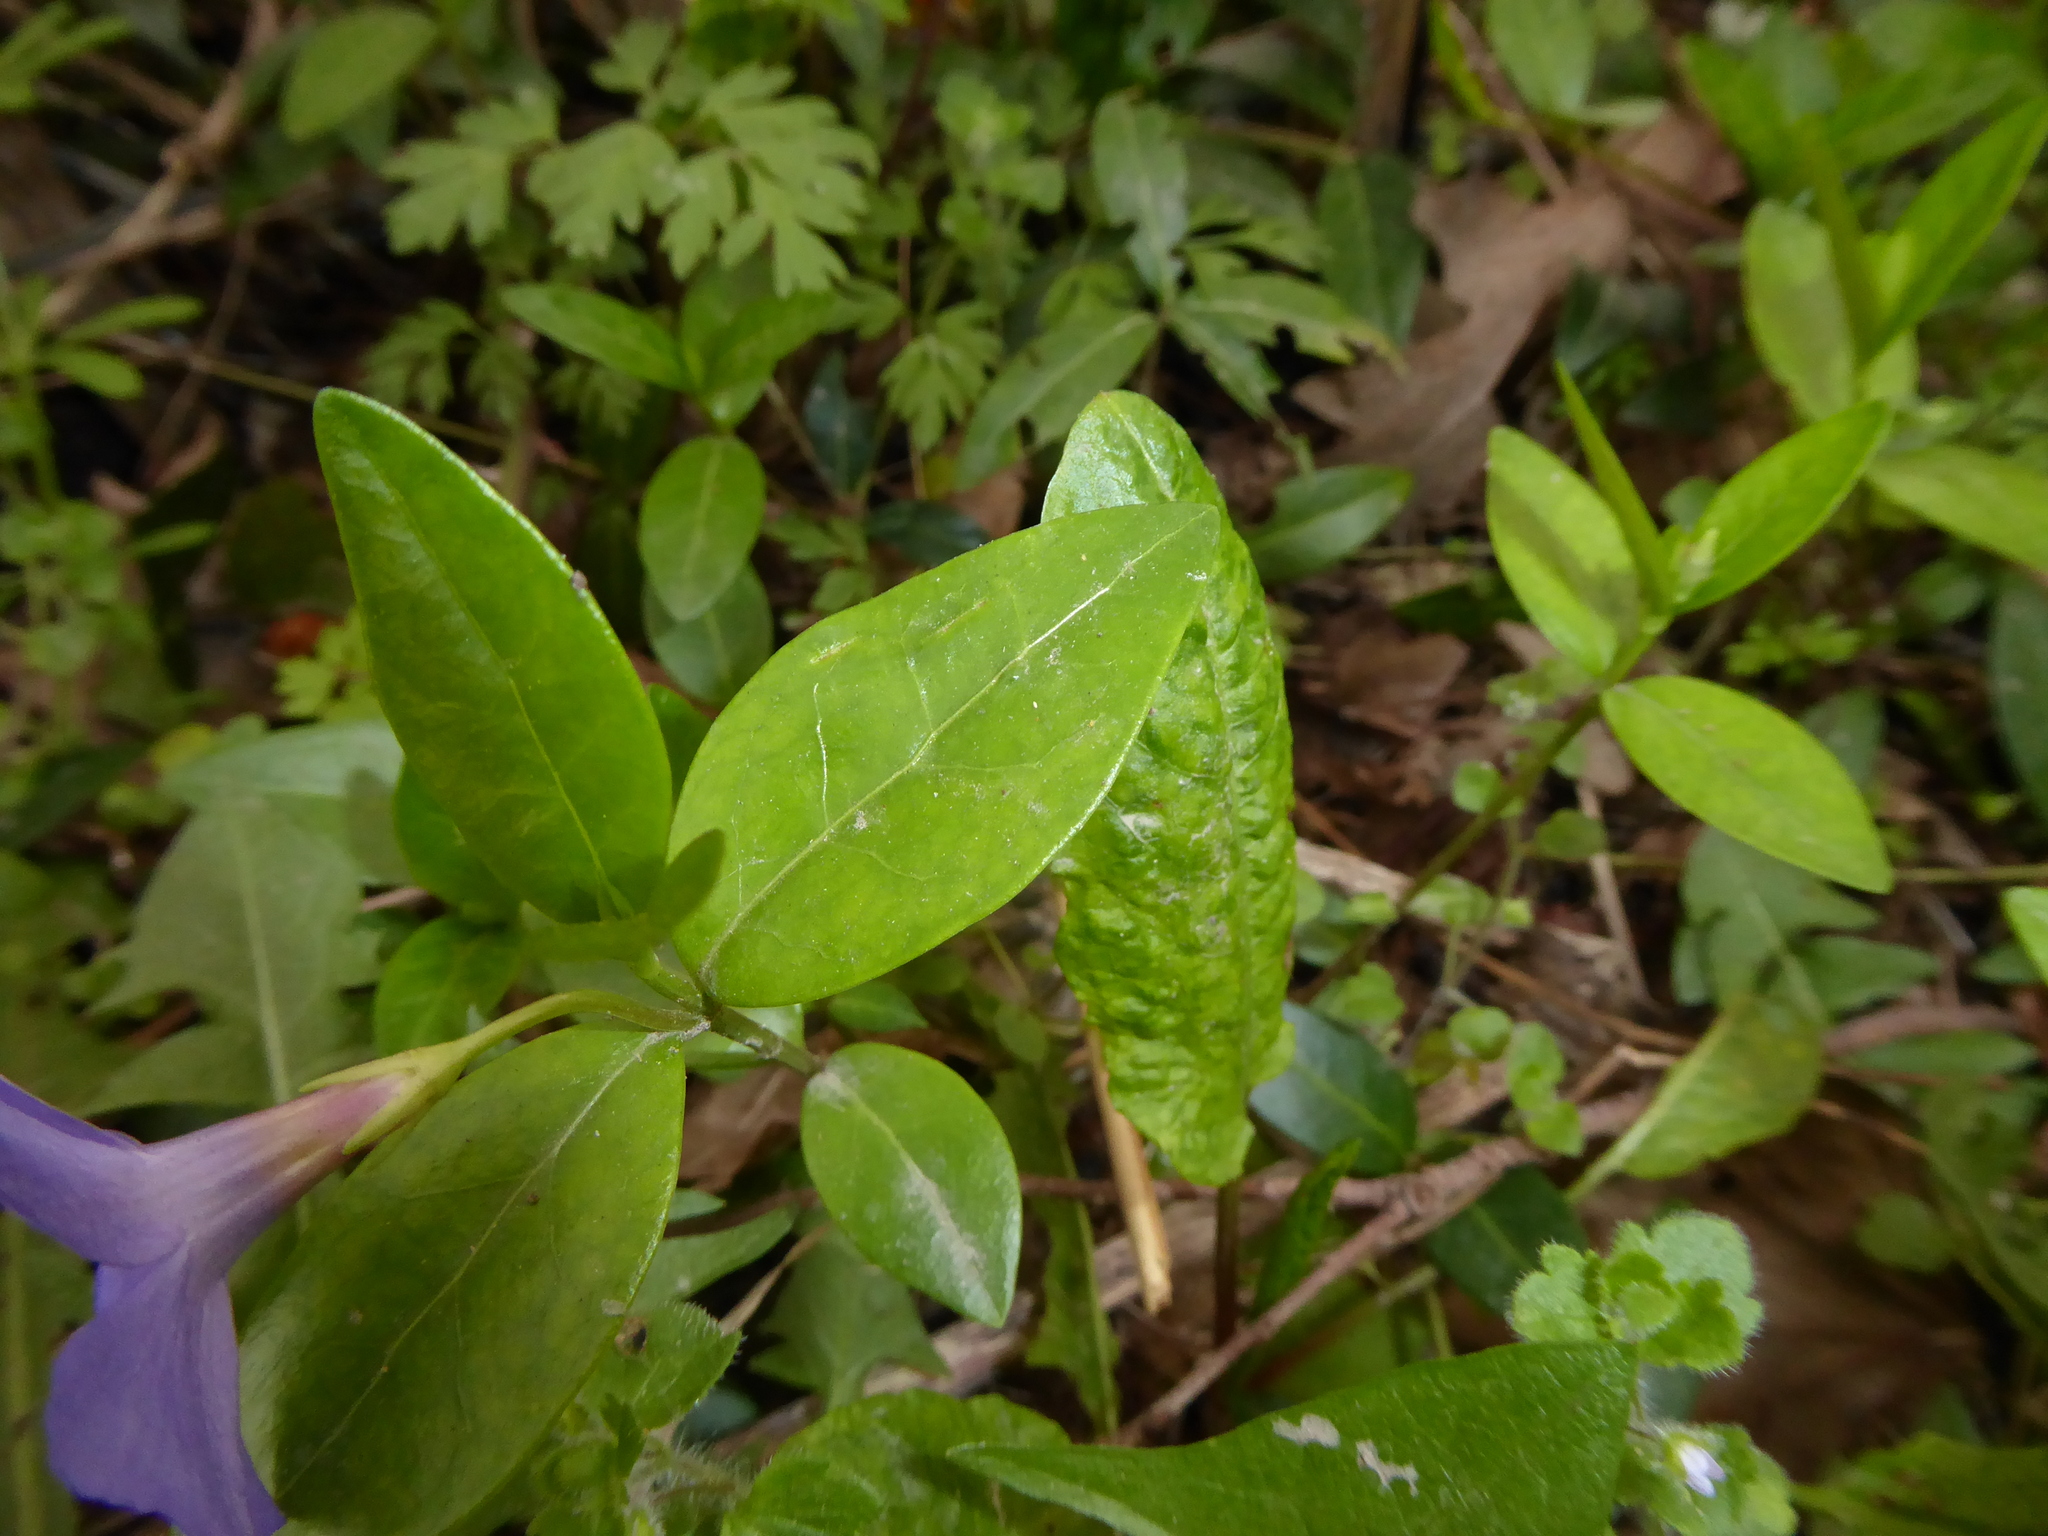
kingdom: Plantae
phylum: Tracheophyta
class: Magnoliopsida
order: Gentianales
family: Apocynaceae
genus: Vinca
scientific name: Vinca minor
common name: Lesser periwinkle
